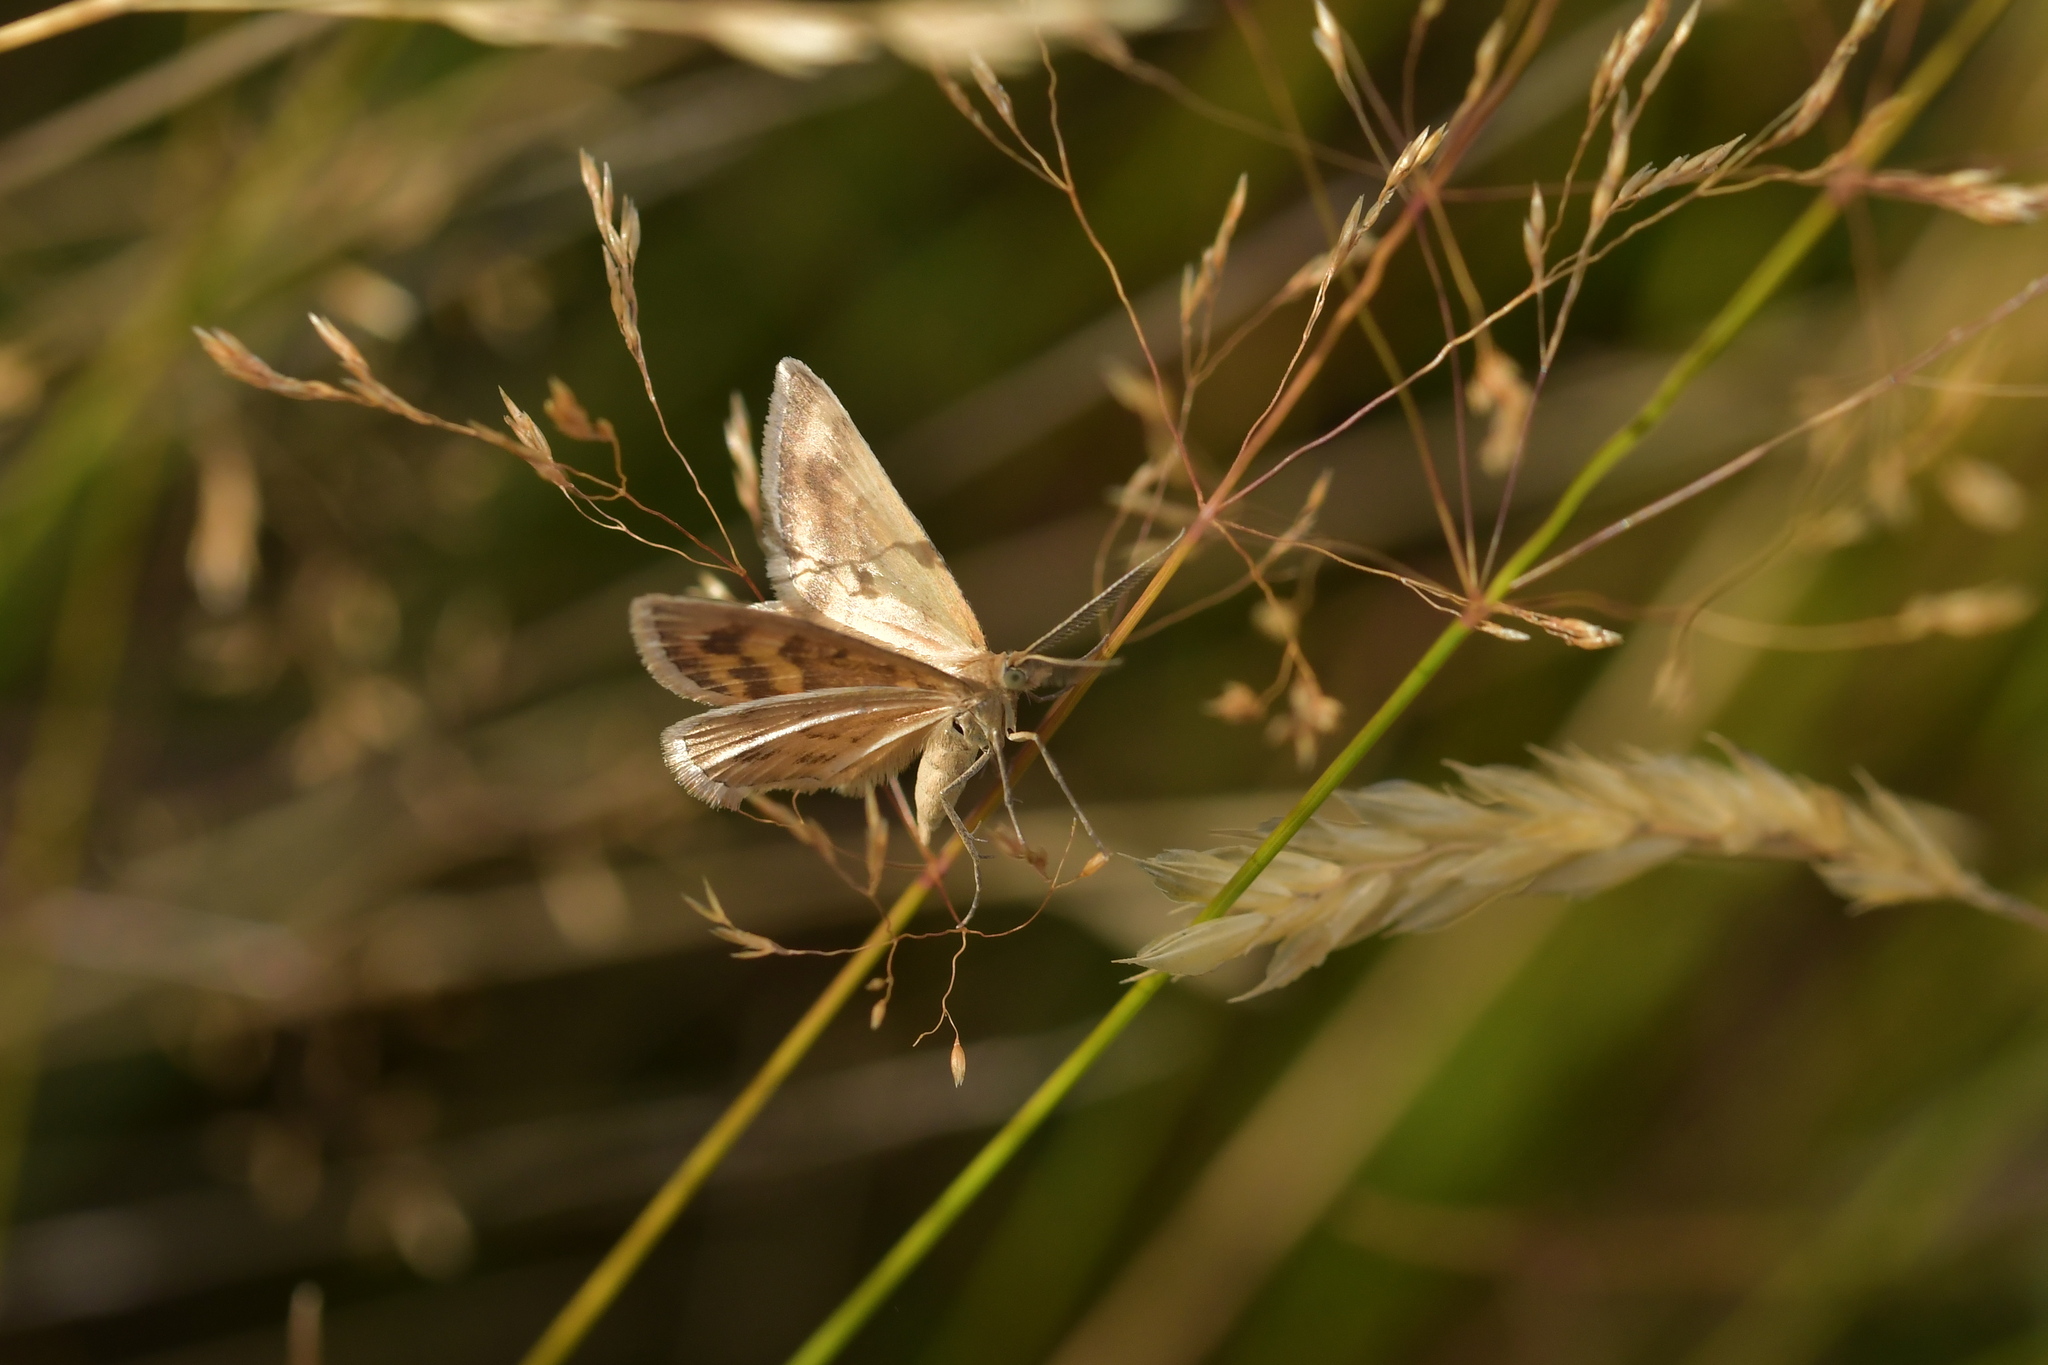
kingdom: Animalia
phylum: Arthropoda
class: Insecta
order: Lepidoptera
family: Geometridae
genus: Asaphodes
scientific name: Asaphodes abrogata
